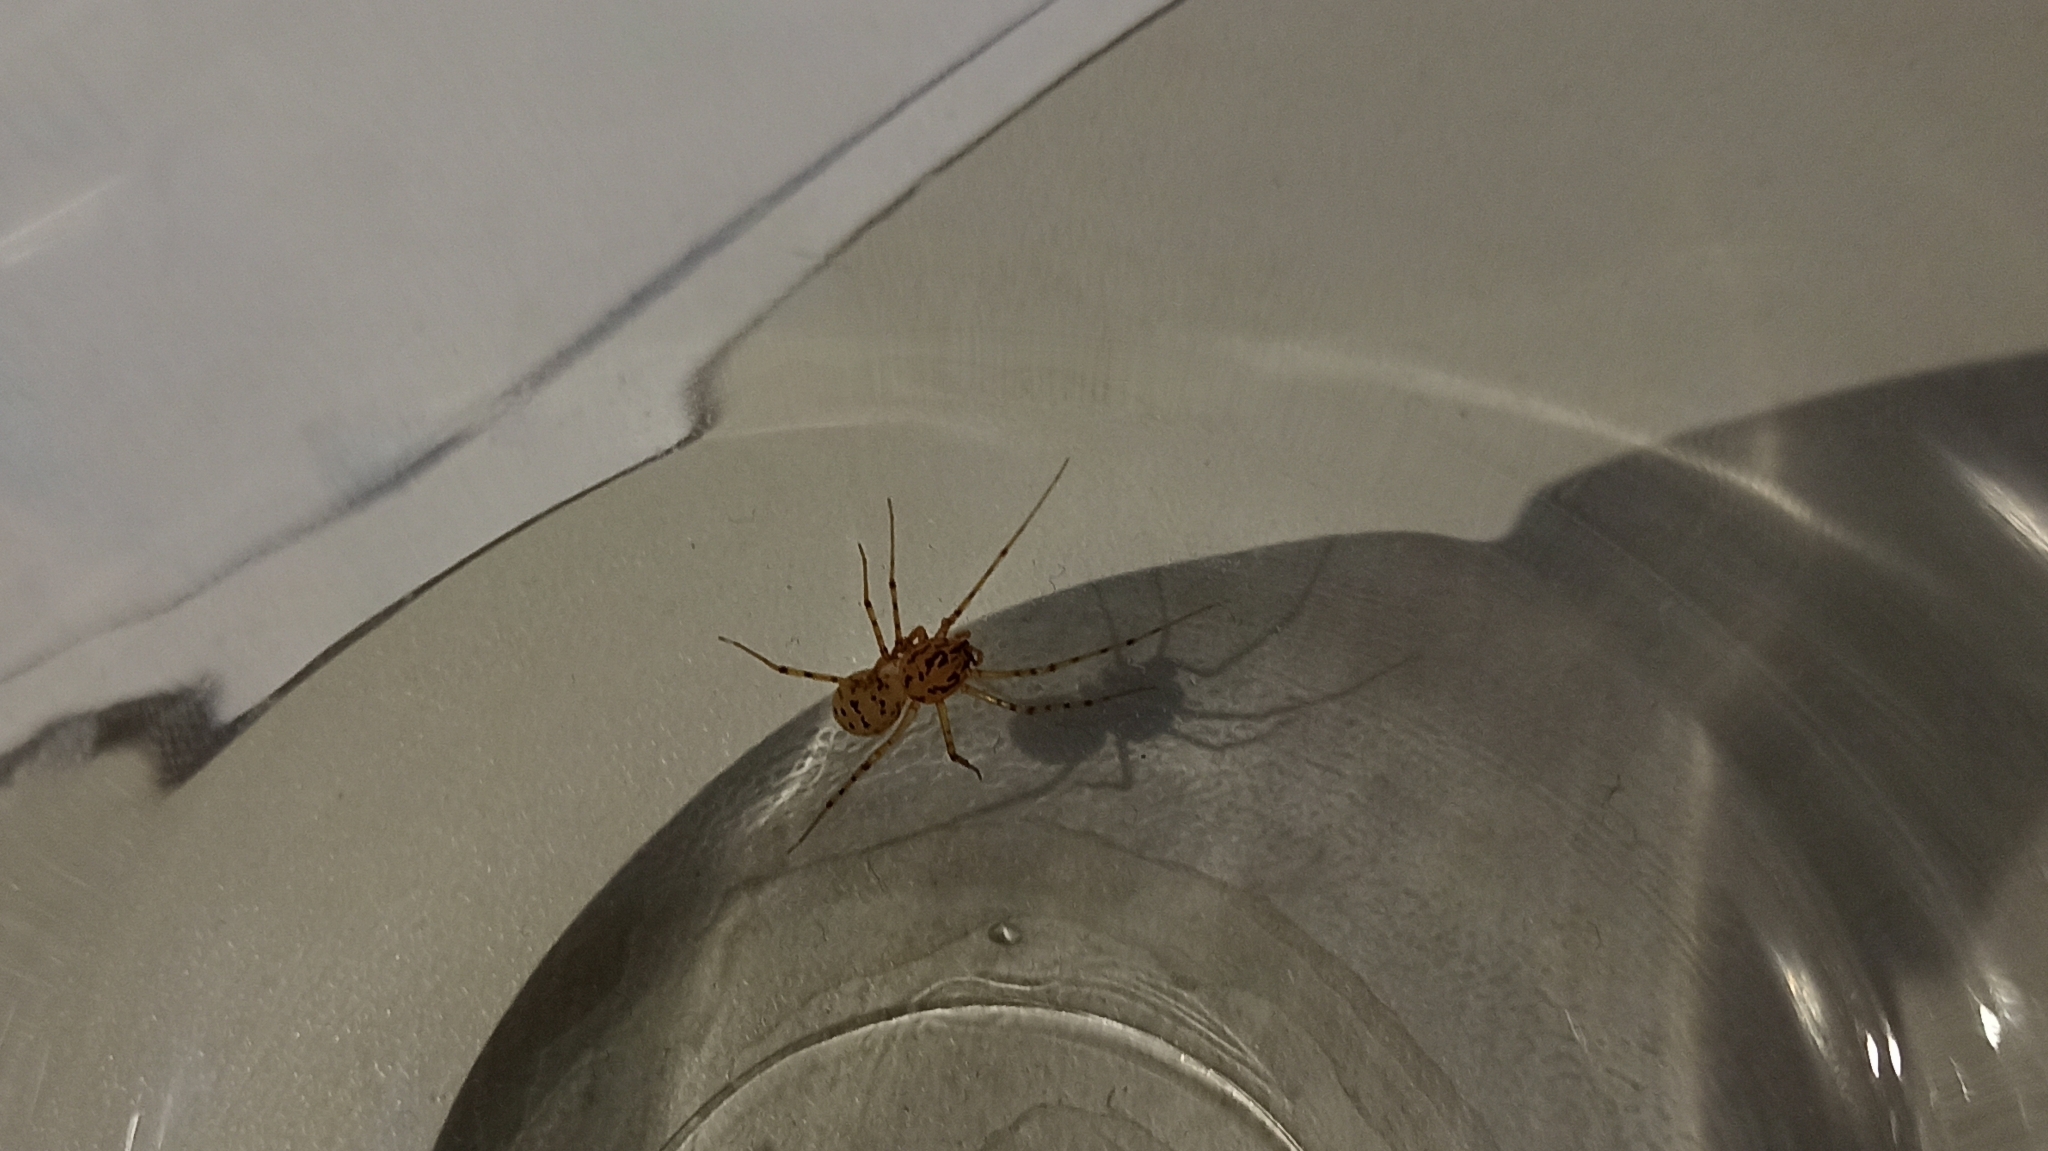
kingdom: Animalia
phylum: Arthropoda
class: Arachnida
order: Araneae
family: Scytodidae
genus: Scytodes
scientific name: Scytodes thoracica
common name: Spitting spider
